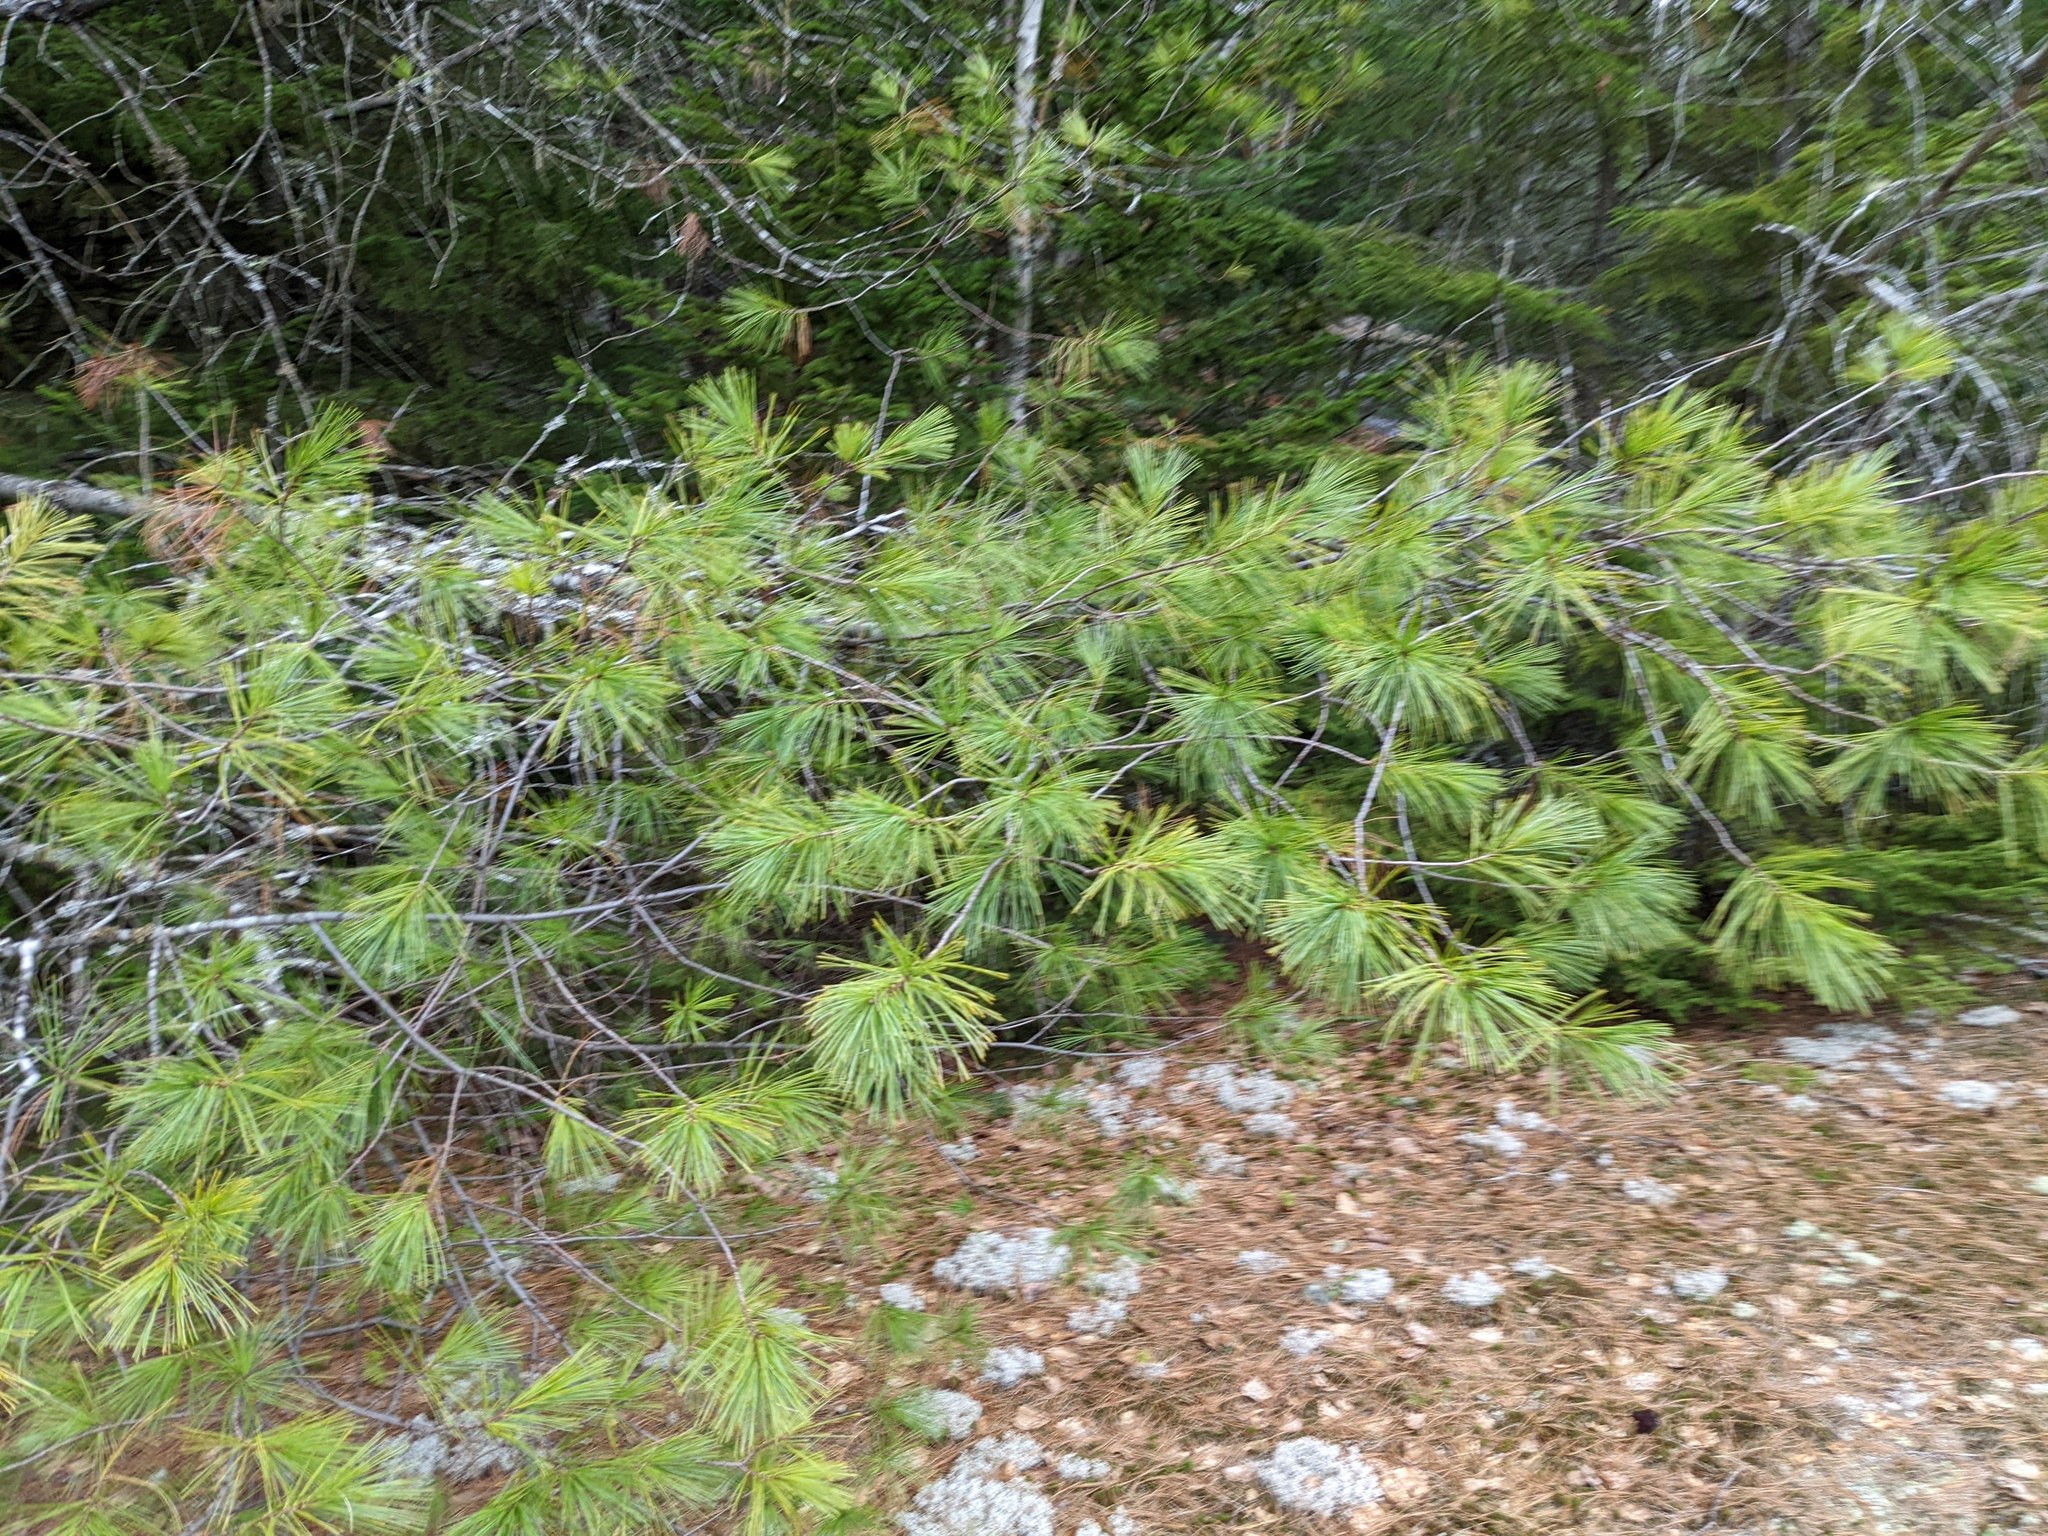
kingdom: Plantae
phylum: Tracheophyta
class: Pinopsida
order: Pinales
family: Pinaceae
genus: Pinus
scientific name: Pinus strobus
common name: Weymouth pine
